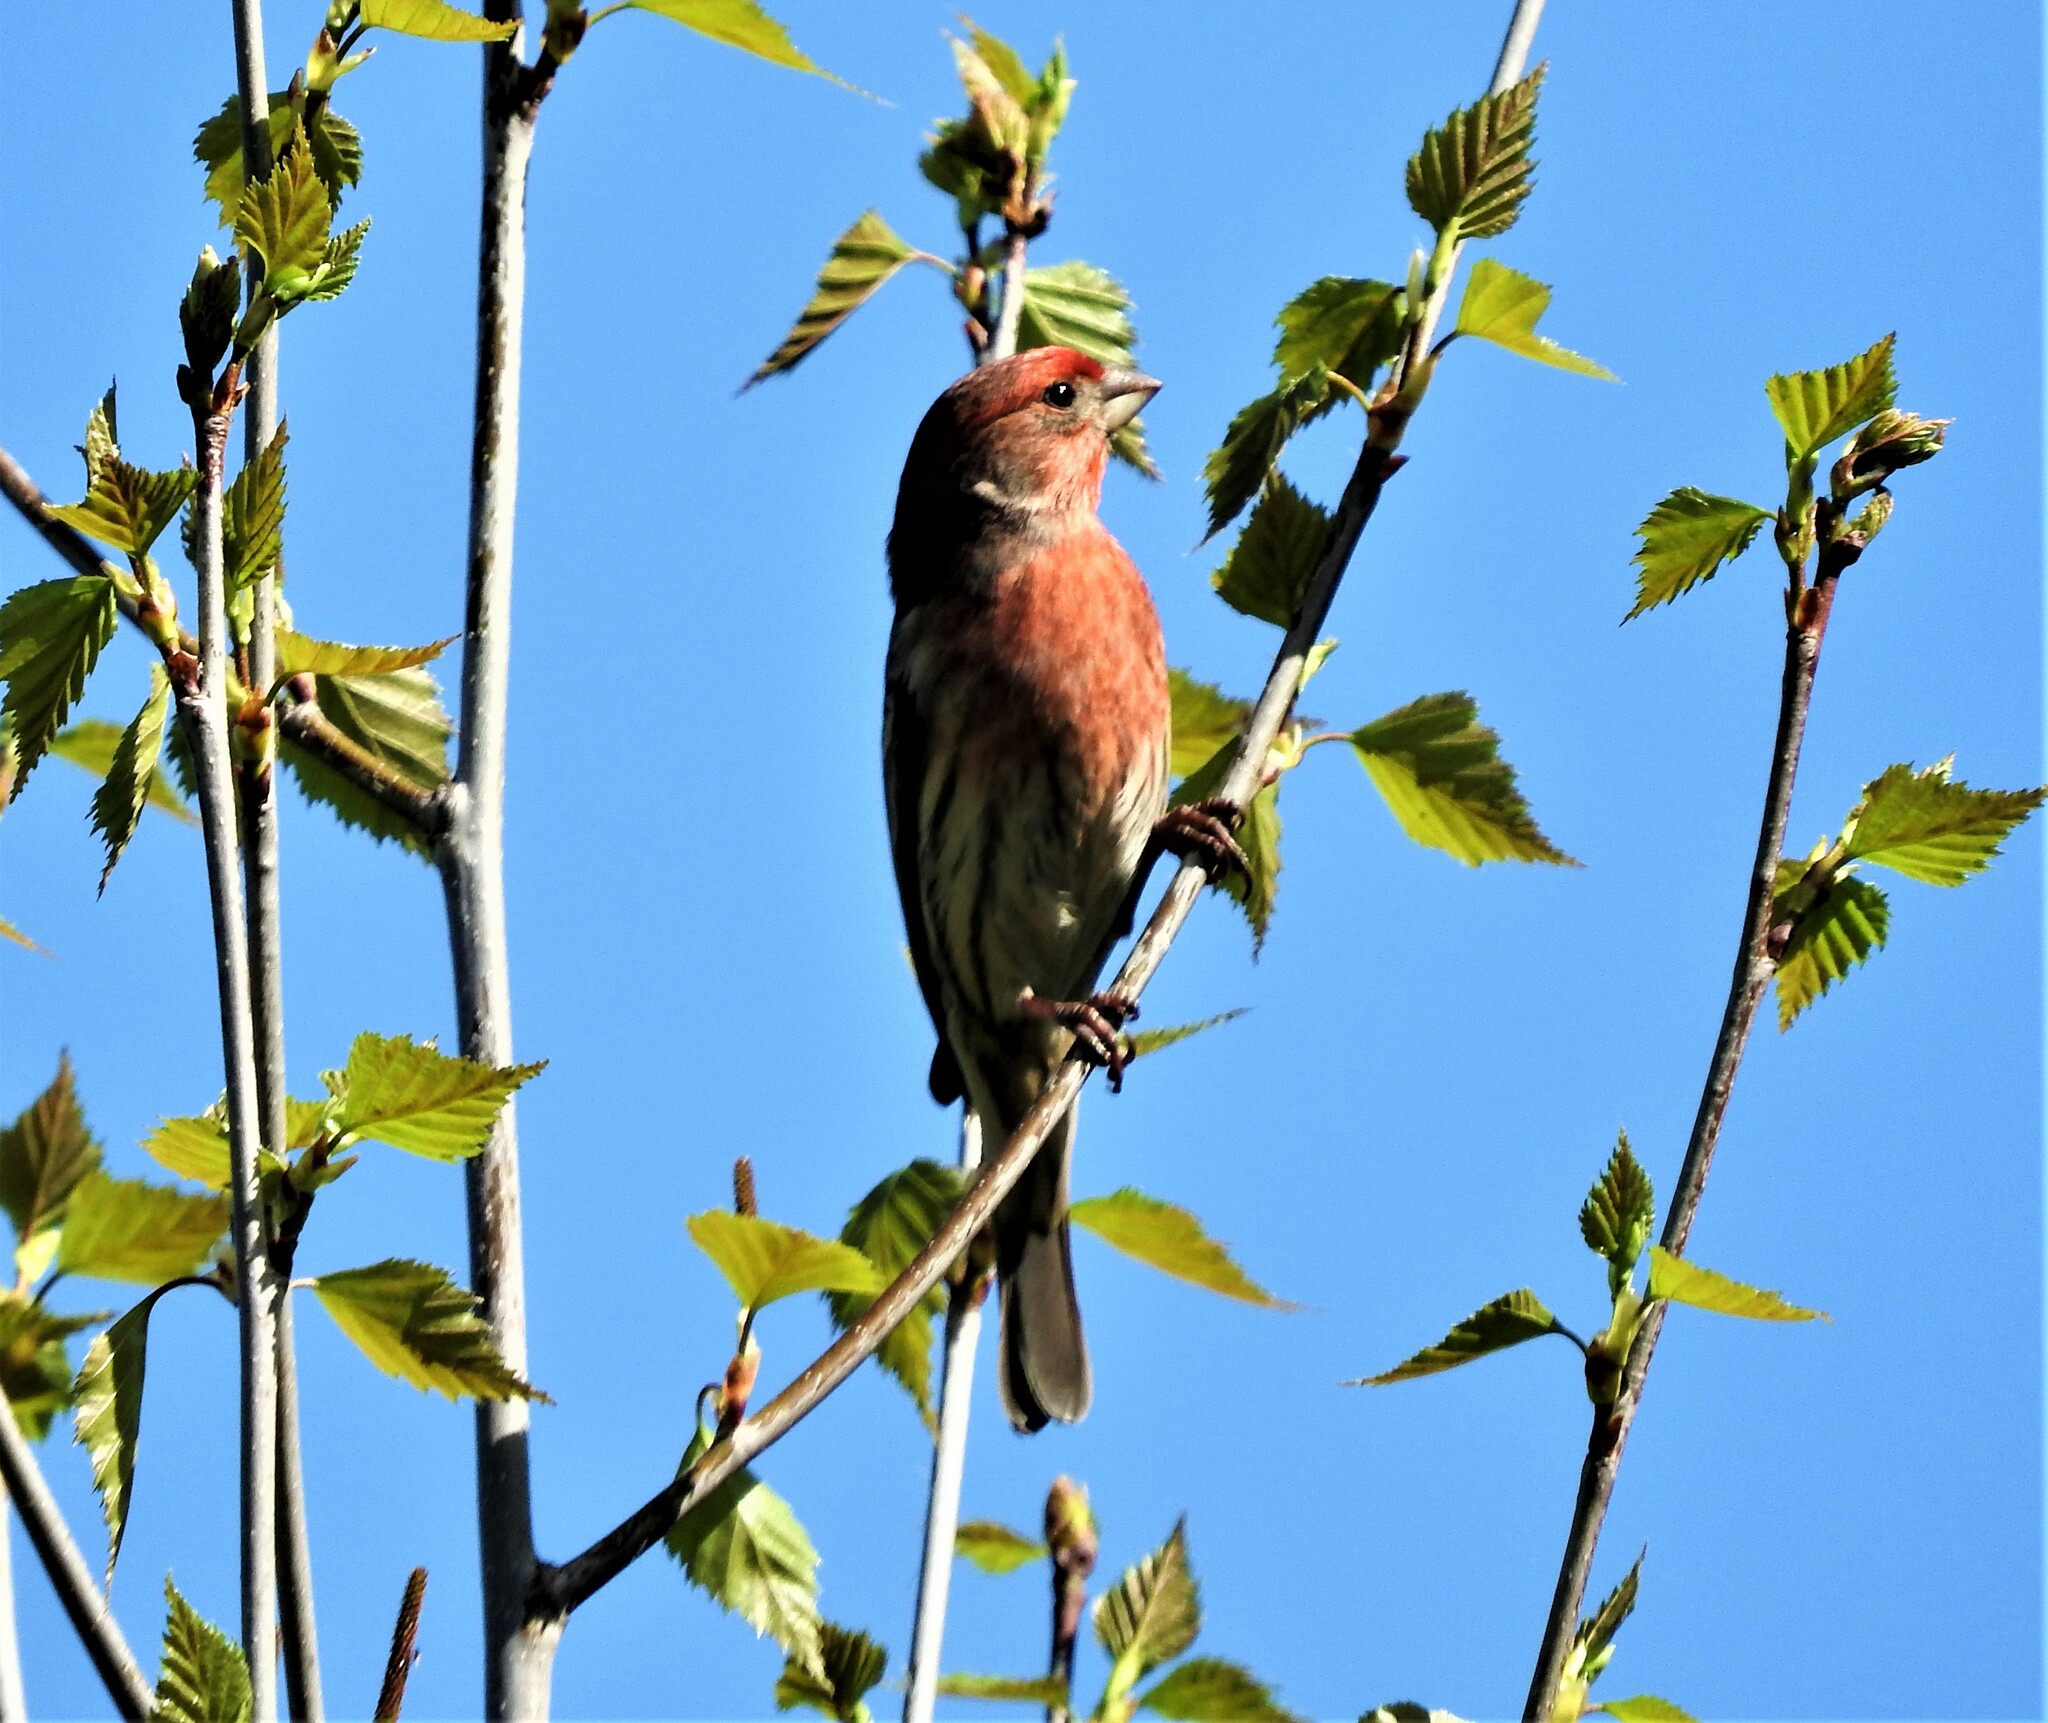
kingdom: Animalia
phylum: Chordata
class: Aves
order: Passeriformes
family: Fringillidae
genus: Haemorhous
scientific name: Haemorhous mexicanus
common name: House finch
